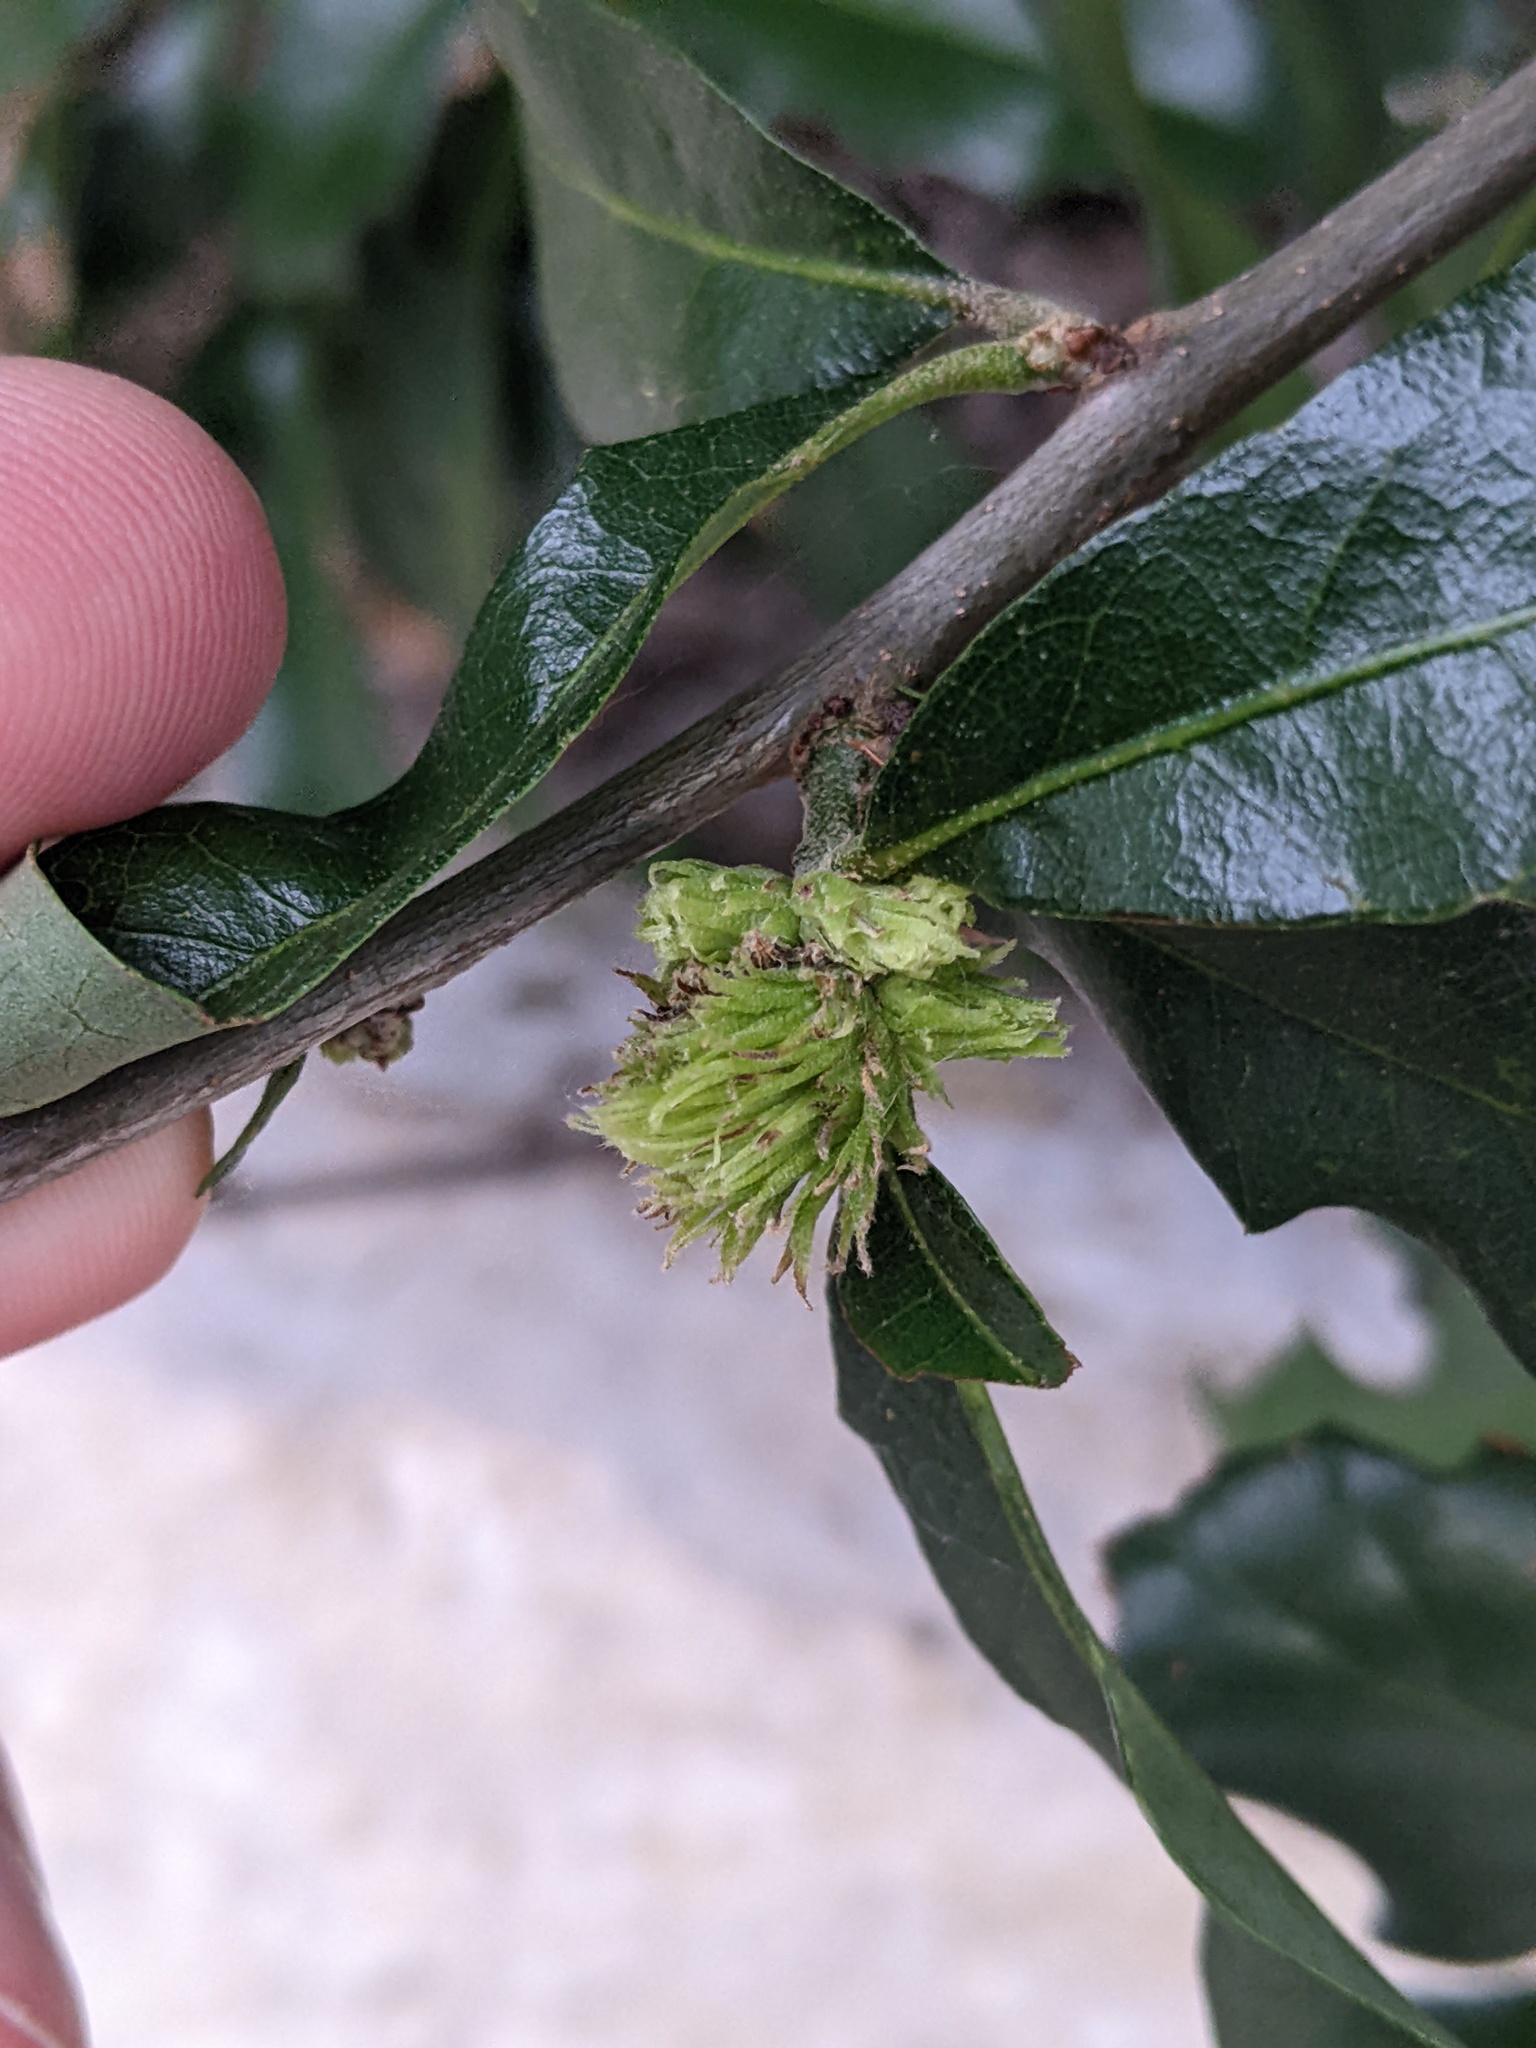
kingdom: Animalia
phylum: Arthropoda
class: Insecta
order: Hymenoptera
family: Cynipidae
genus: Andricus
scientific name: Andricus quercusfoliatus
